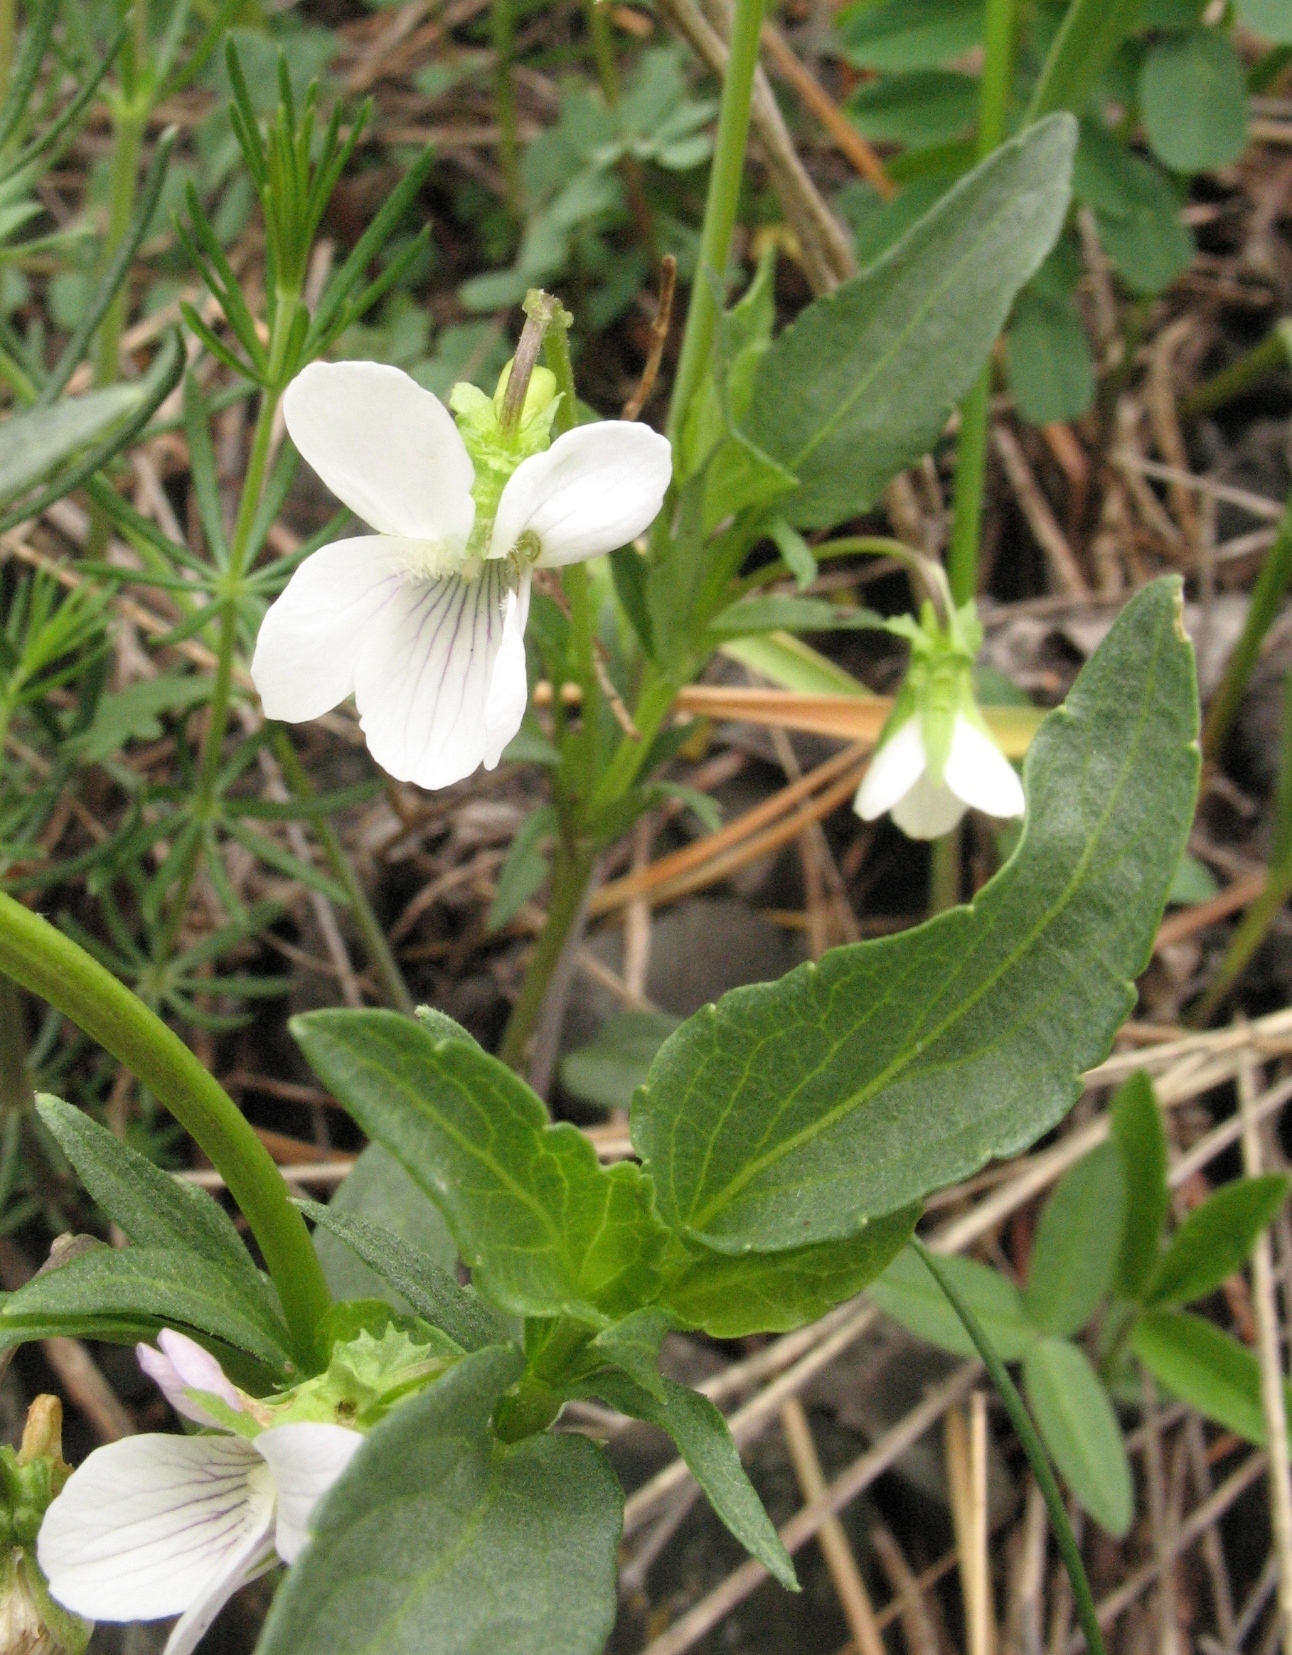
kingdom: Plantae
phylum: Tracheophyta
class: Magnoliopsida
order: Malpighiales
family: Violaceae
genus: Viola
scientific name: Viola pumila
